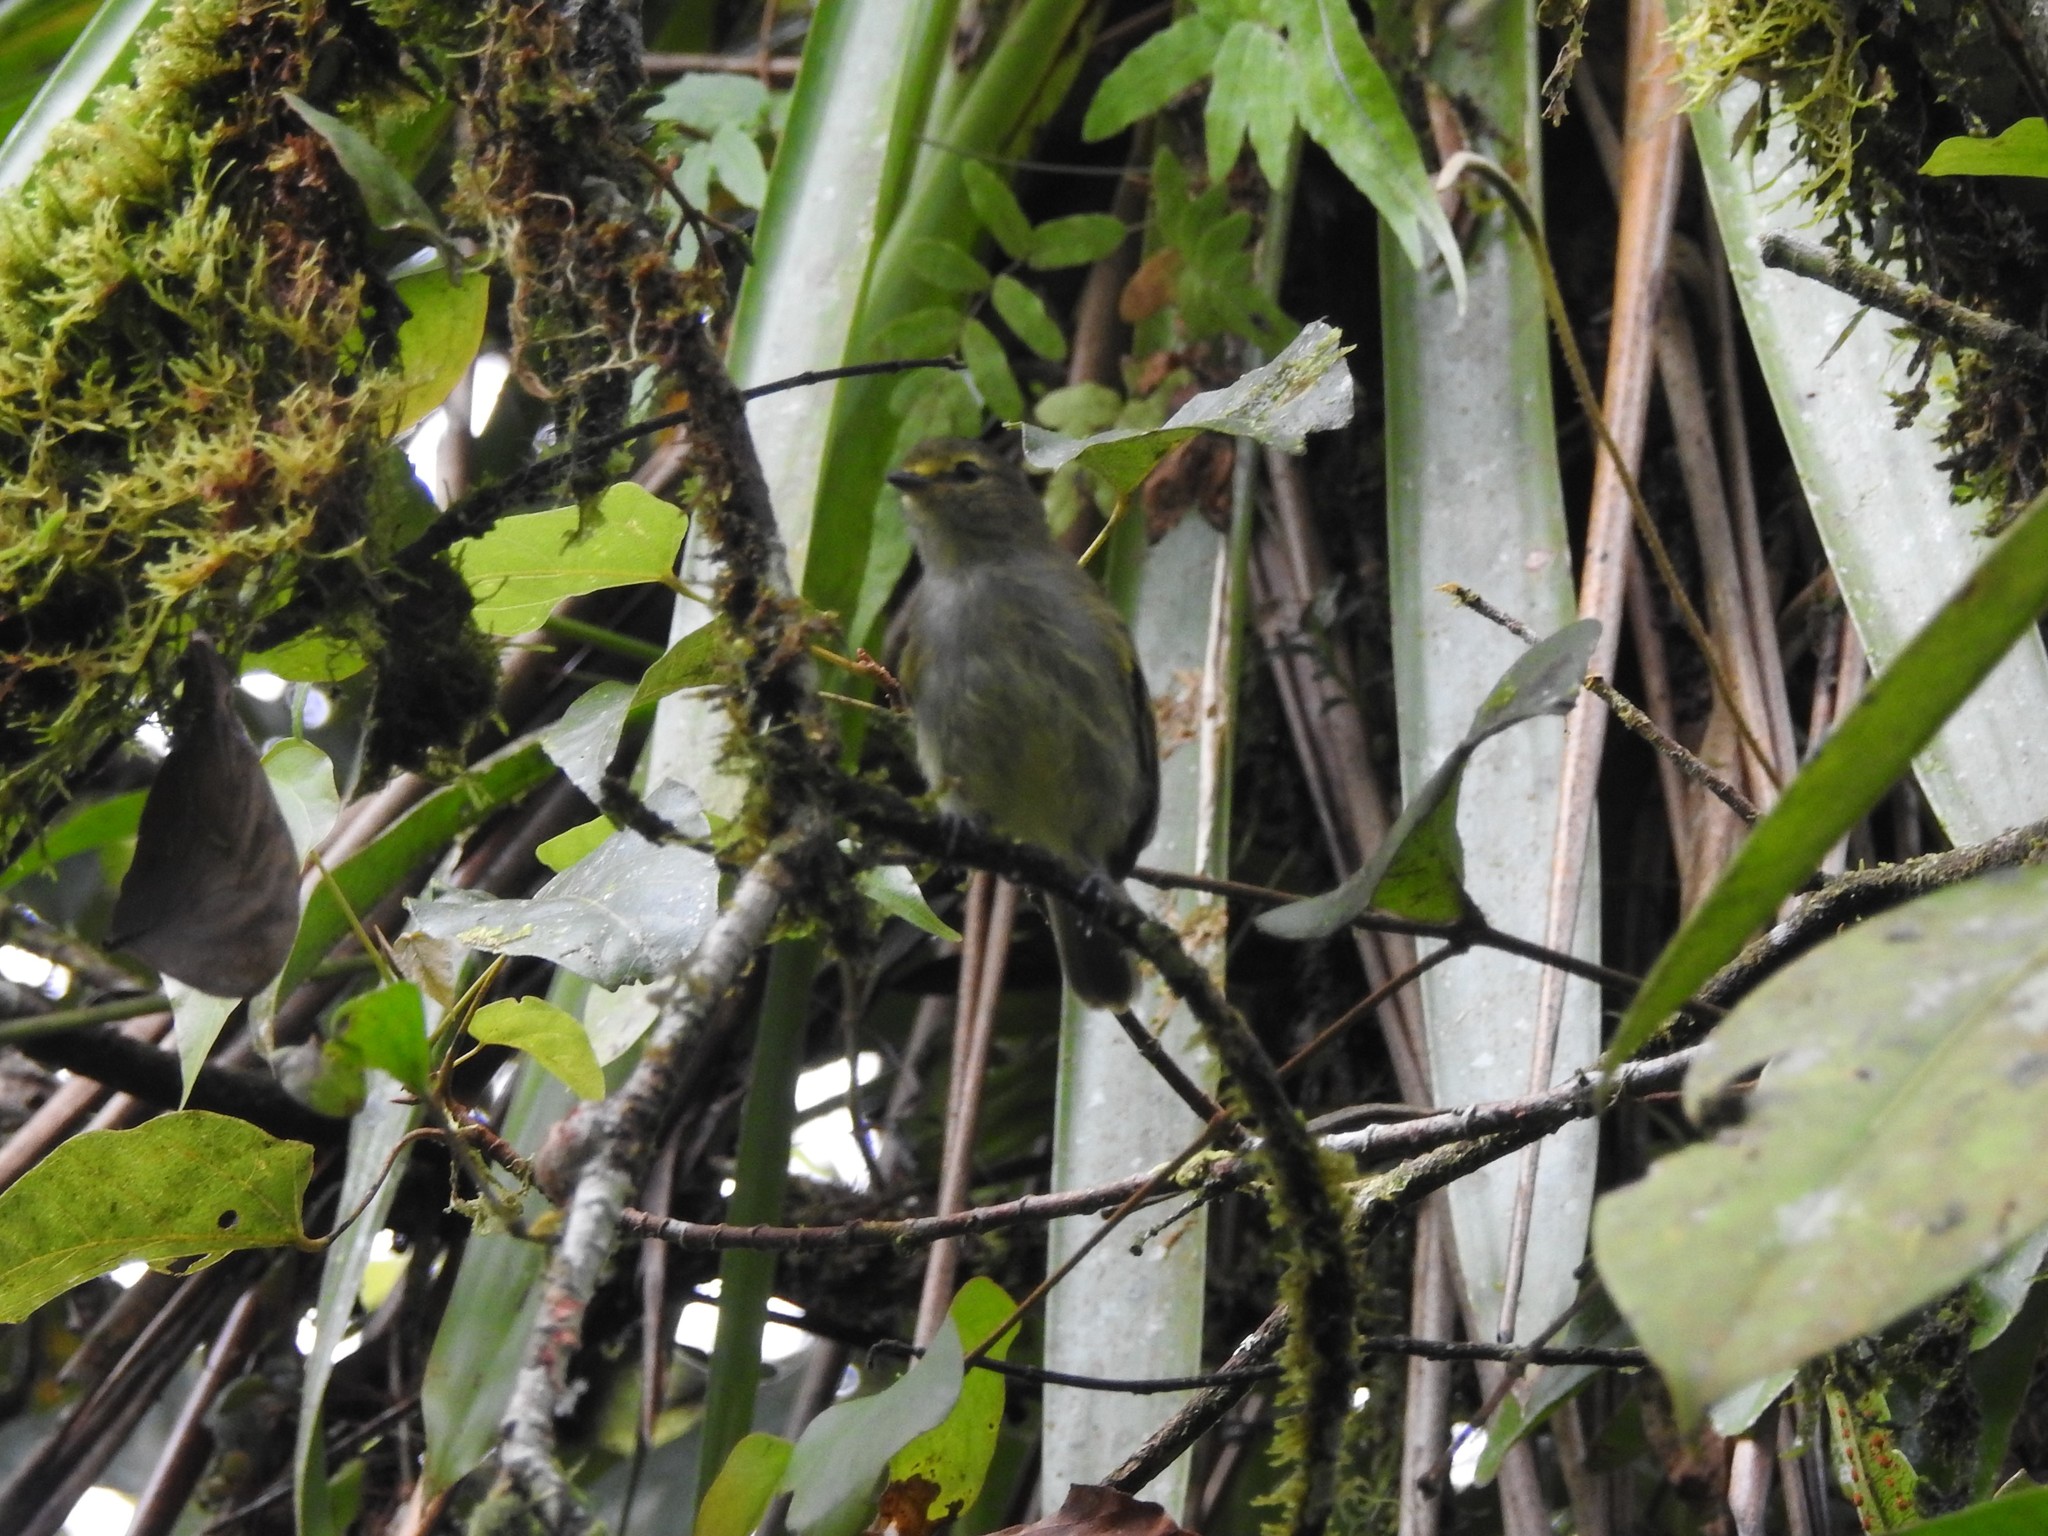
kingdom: Animalia
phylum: Chordata
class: Aves
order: Passeriformes
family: Tyrannidae
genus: Zimmerius
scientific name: Zimmerius chrysops
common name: Golden-faced tyrannulet
